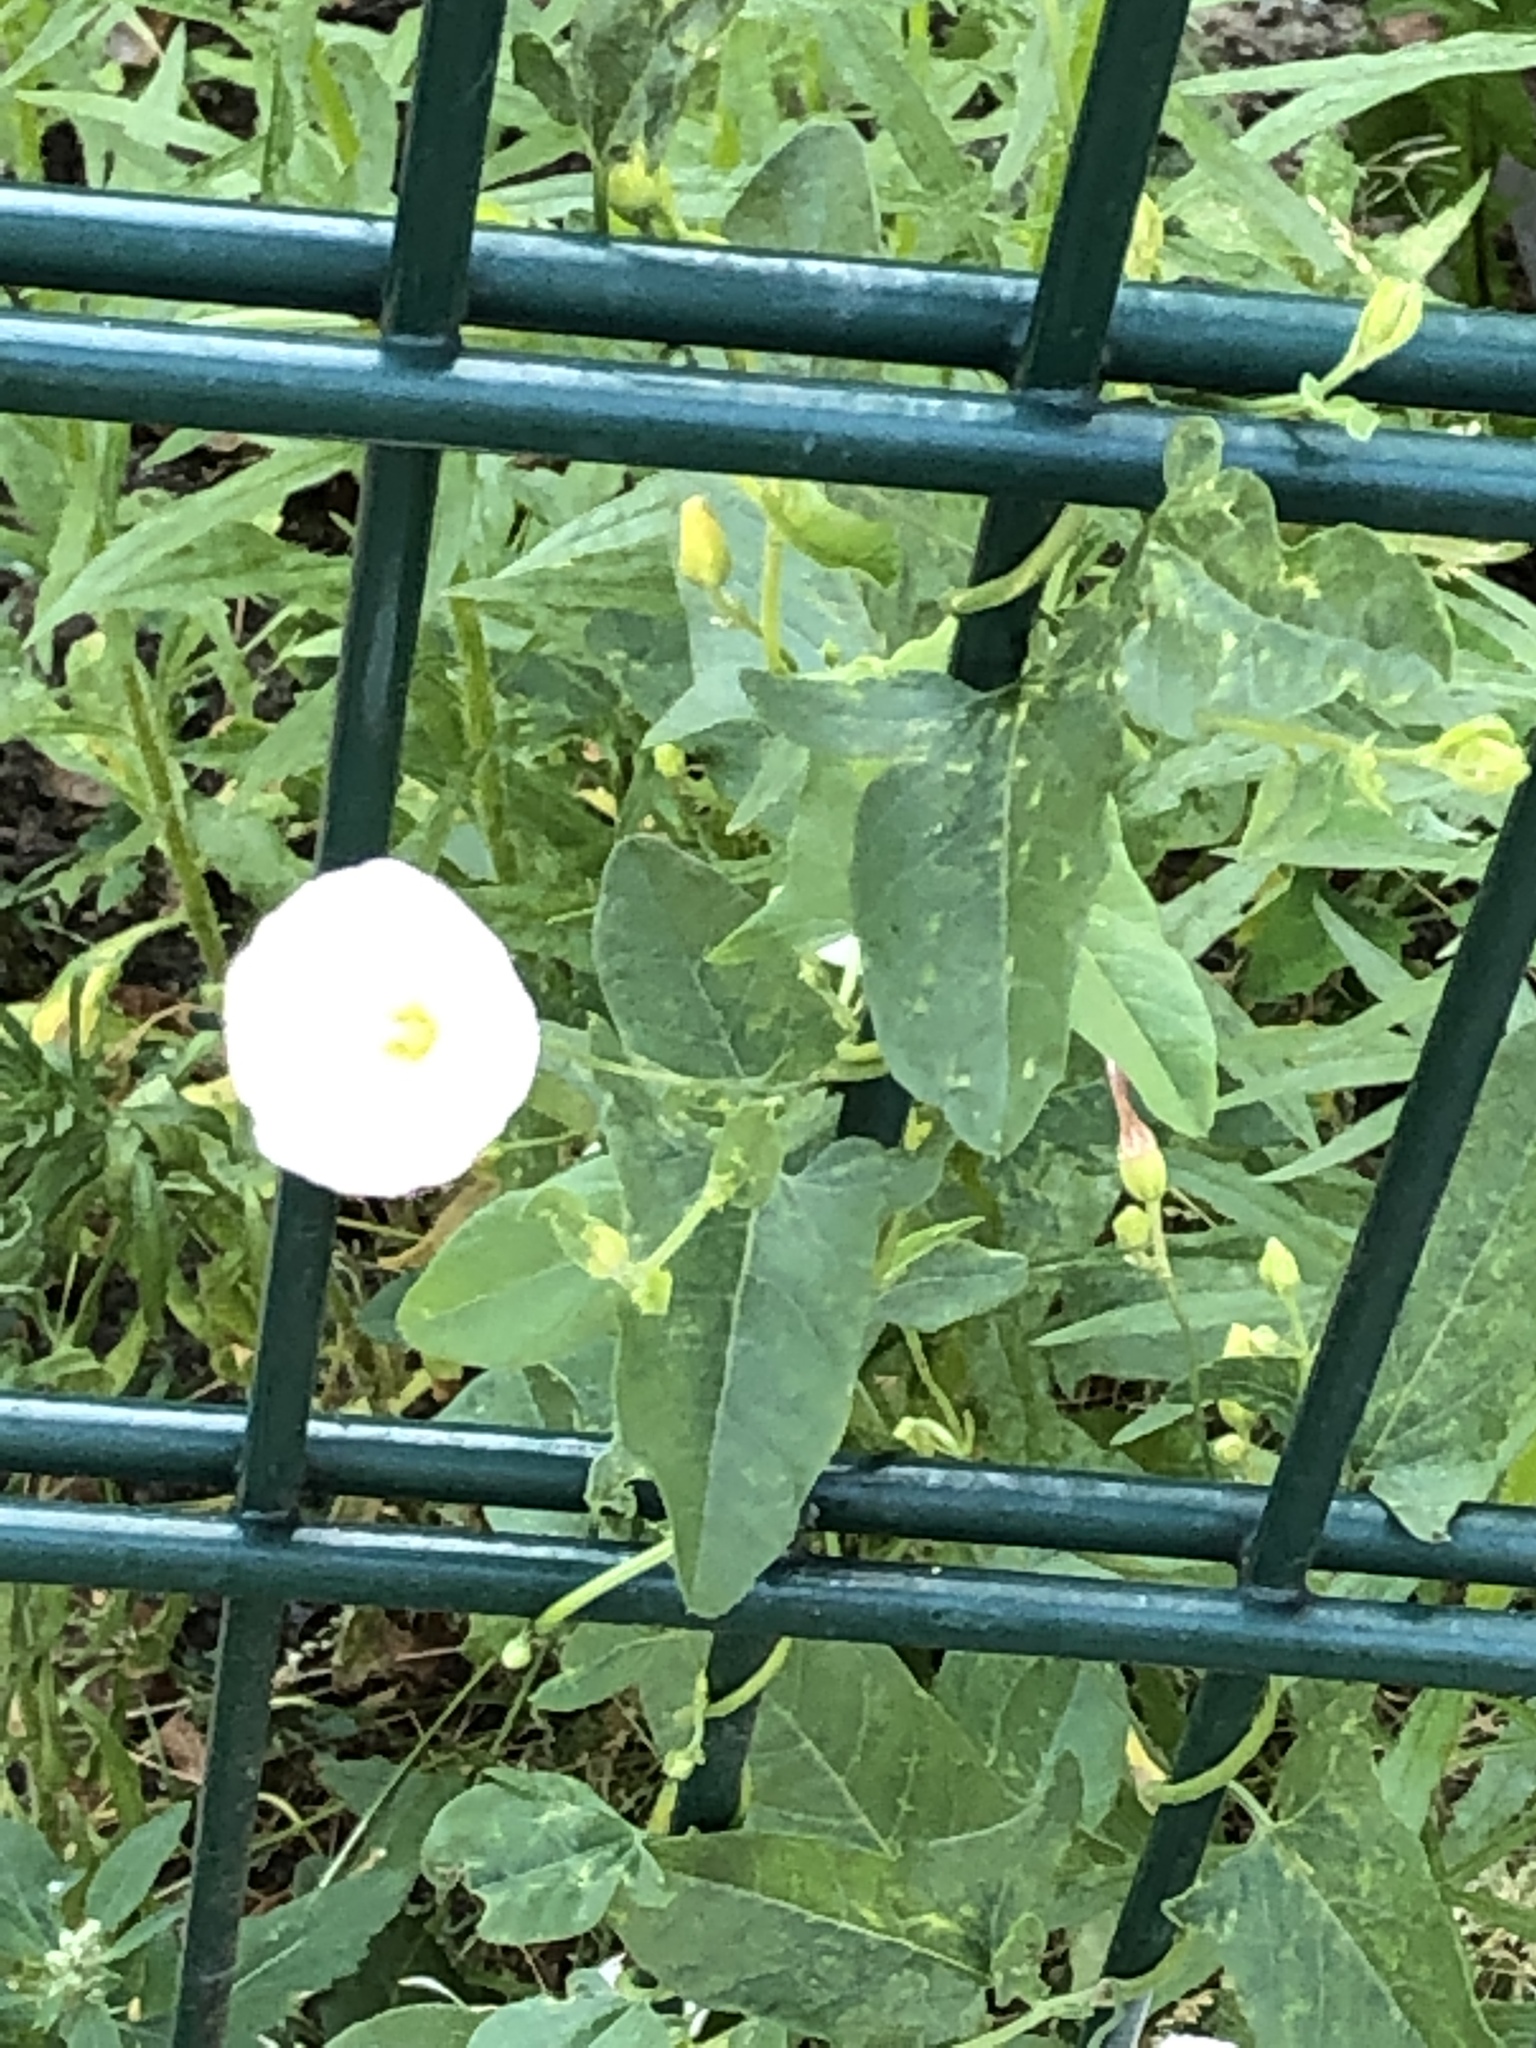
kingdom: Plantae
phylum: Tracheophyta
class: Magnoliopsida
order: Solanales
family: Convolvulaceae
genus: Convolvulus
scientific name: Convolvulus arvensis
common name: Field bindweed
